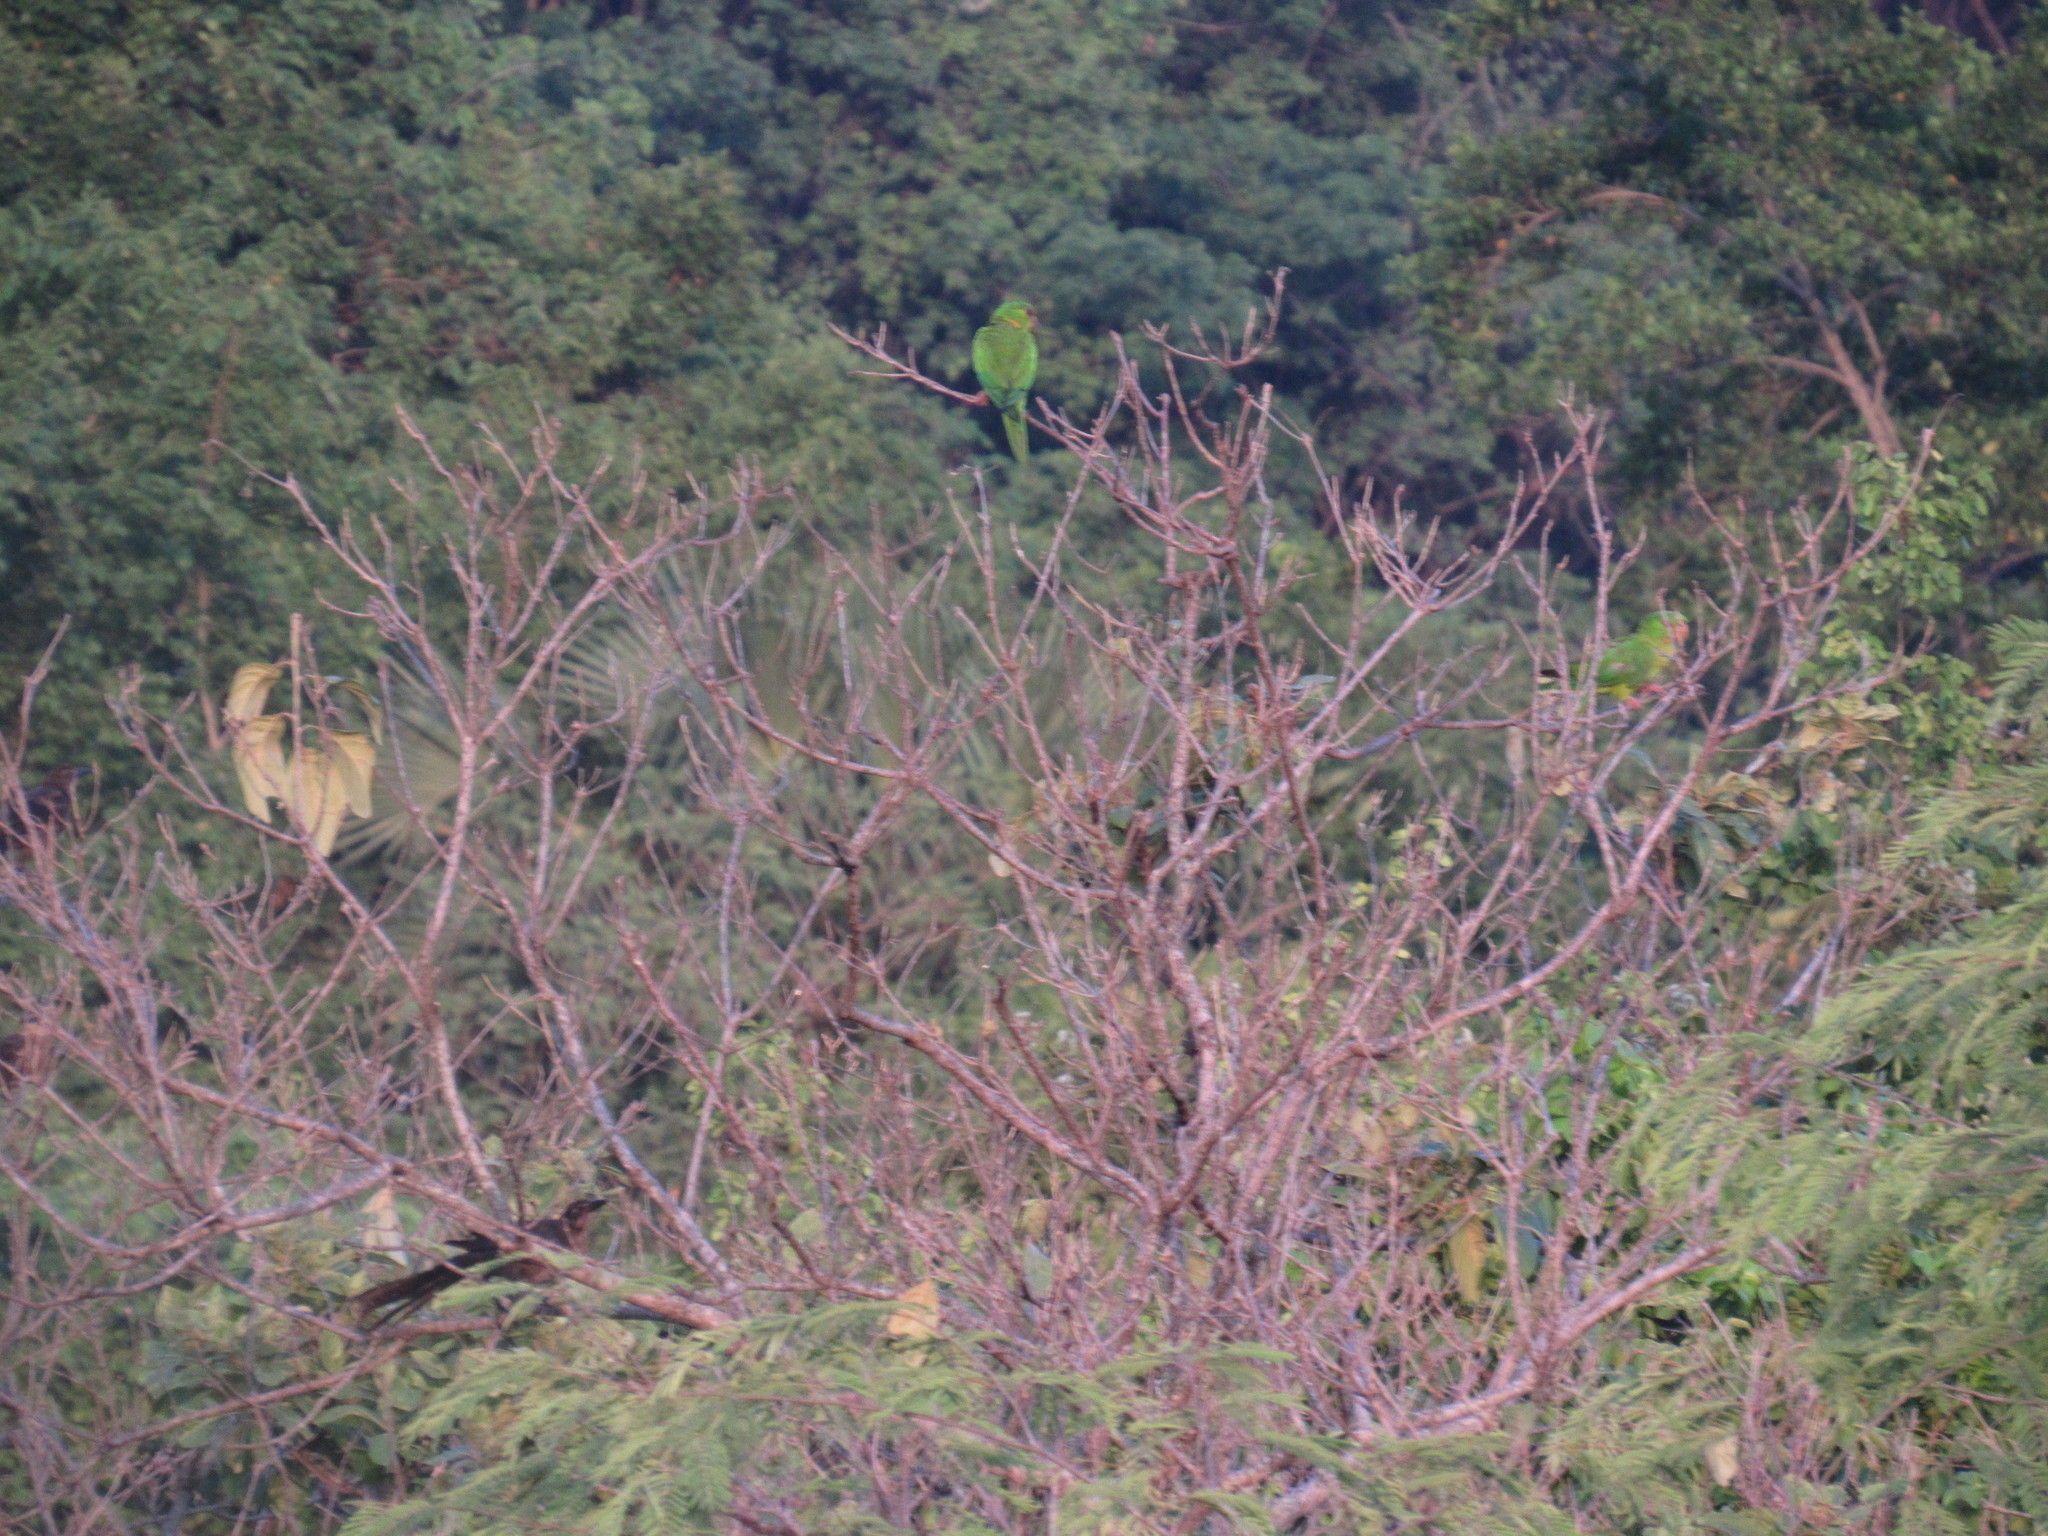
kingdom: Animalia
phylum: Chordata
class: Aves
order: Psittaciformes
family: Psittacidae
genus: Aratinga
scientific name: Aratinga holochlora
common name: Green parakeet
